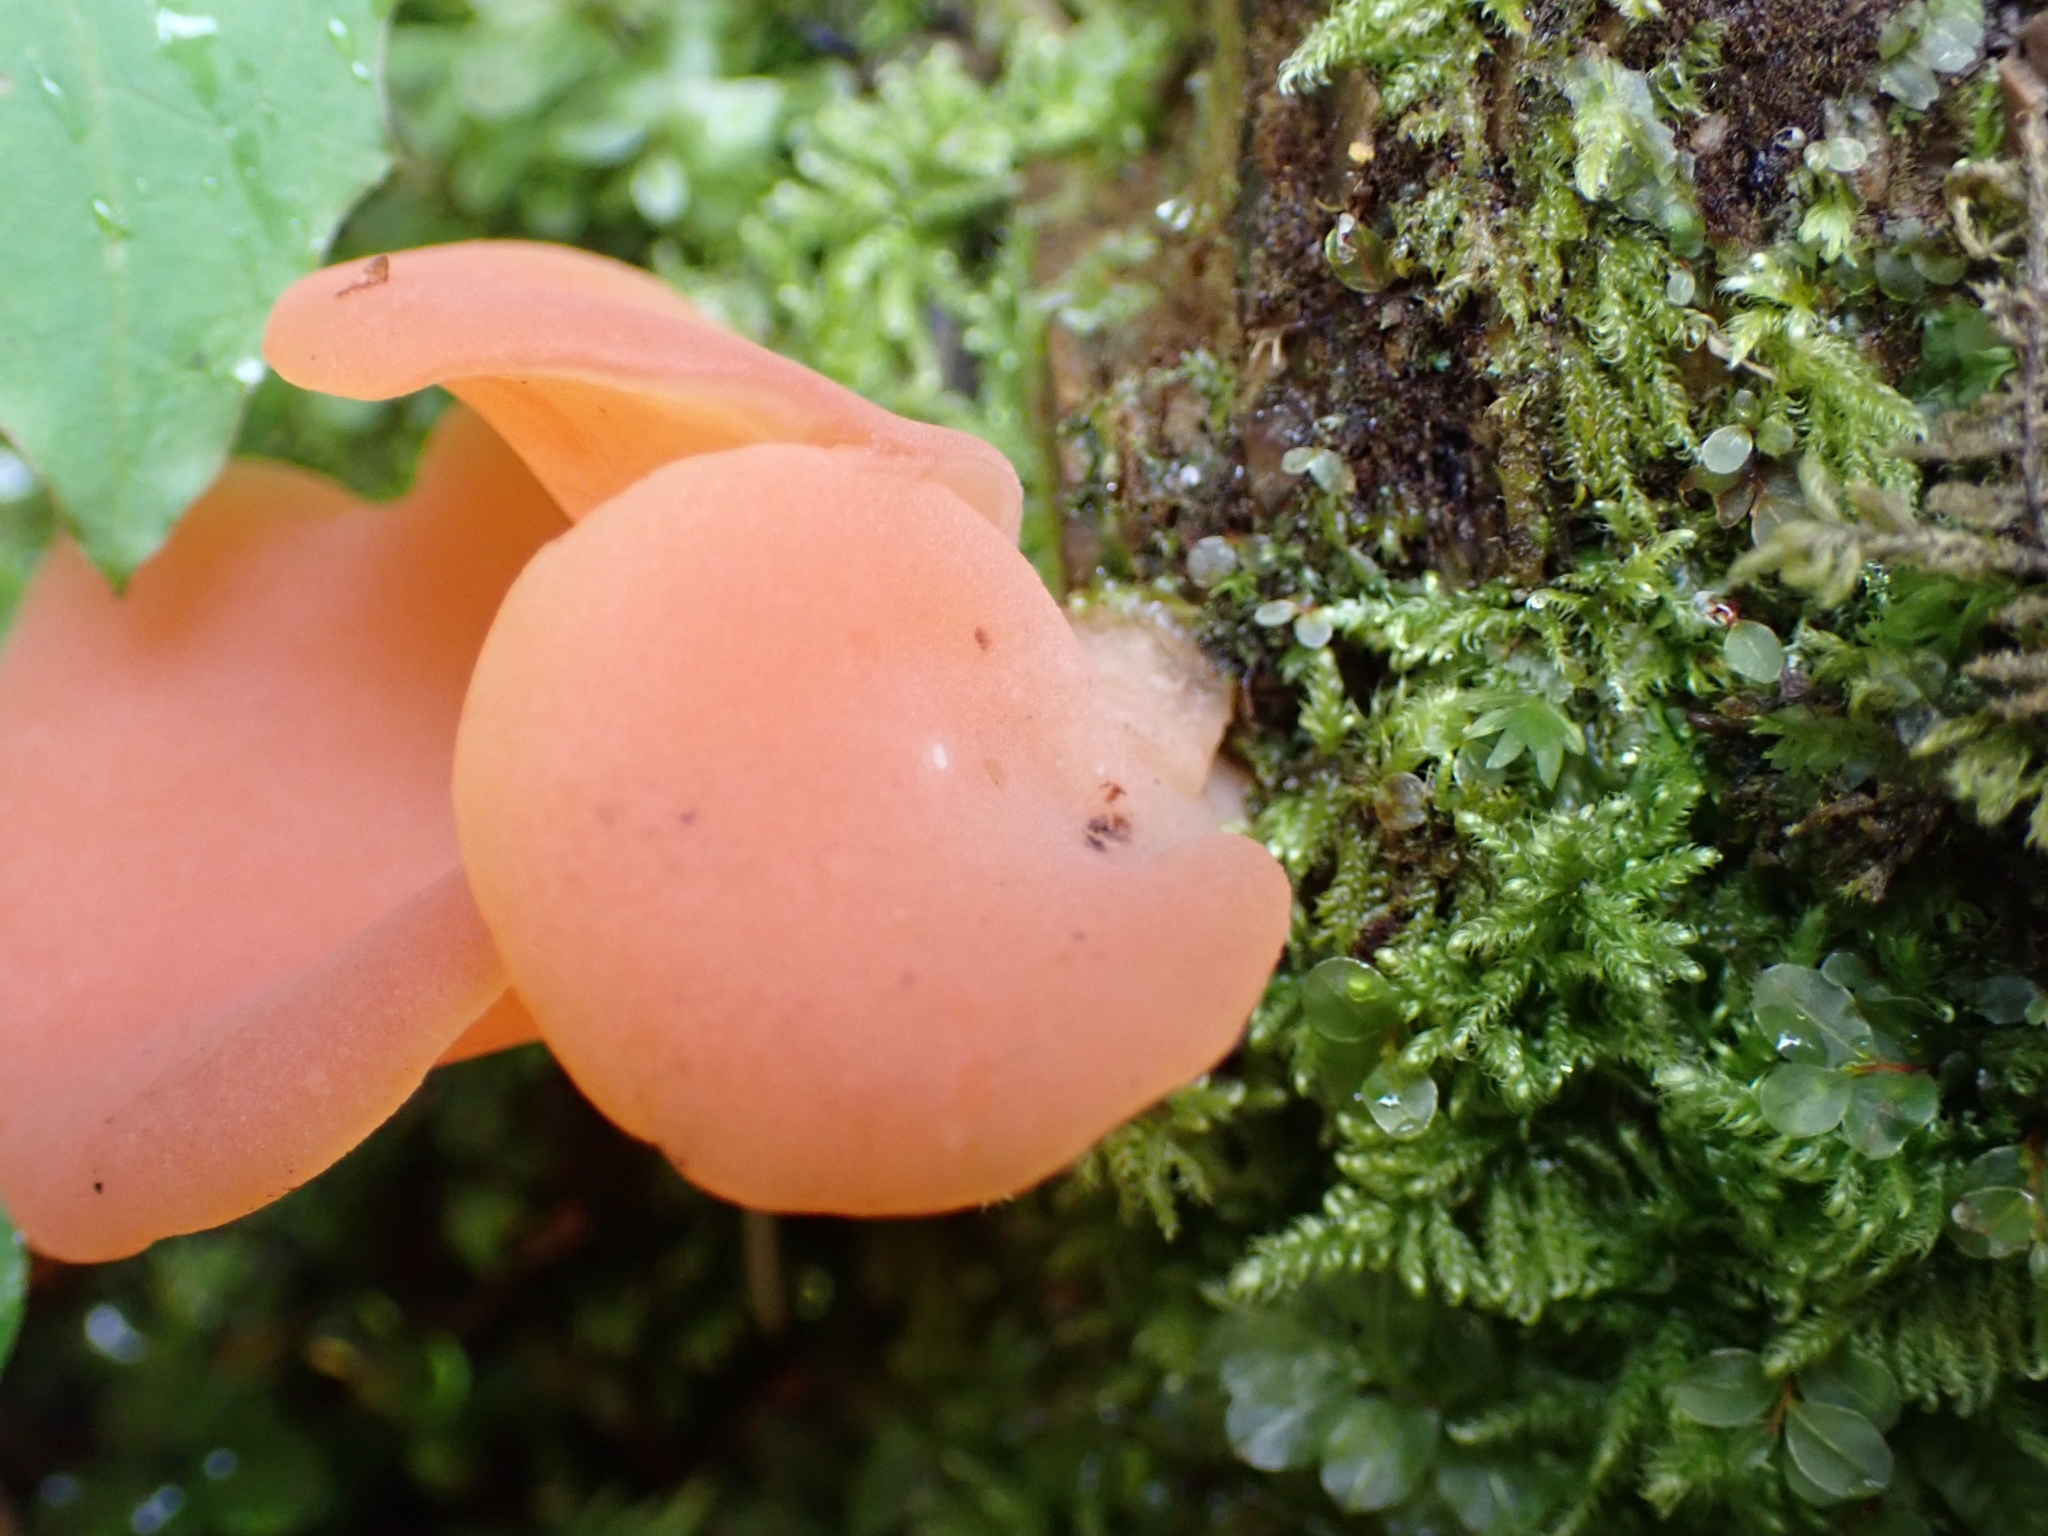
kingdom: Fungi
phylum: Basidiomycota
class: Agaricomycetes
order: Auriculariales
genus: Guepinia
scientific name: Guepinia helvelloides
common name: Salmon salad
